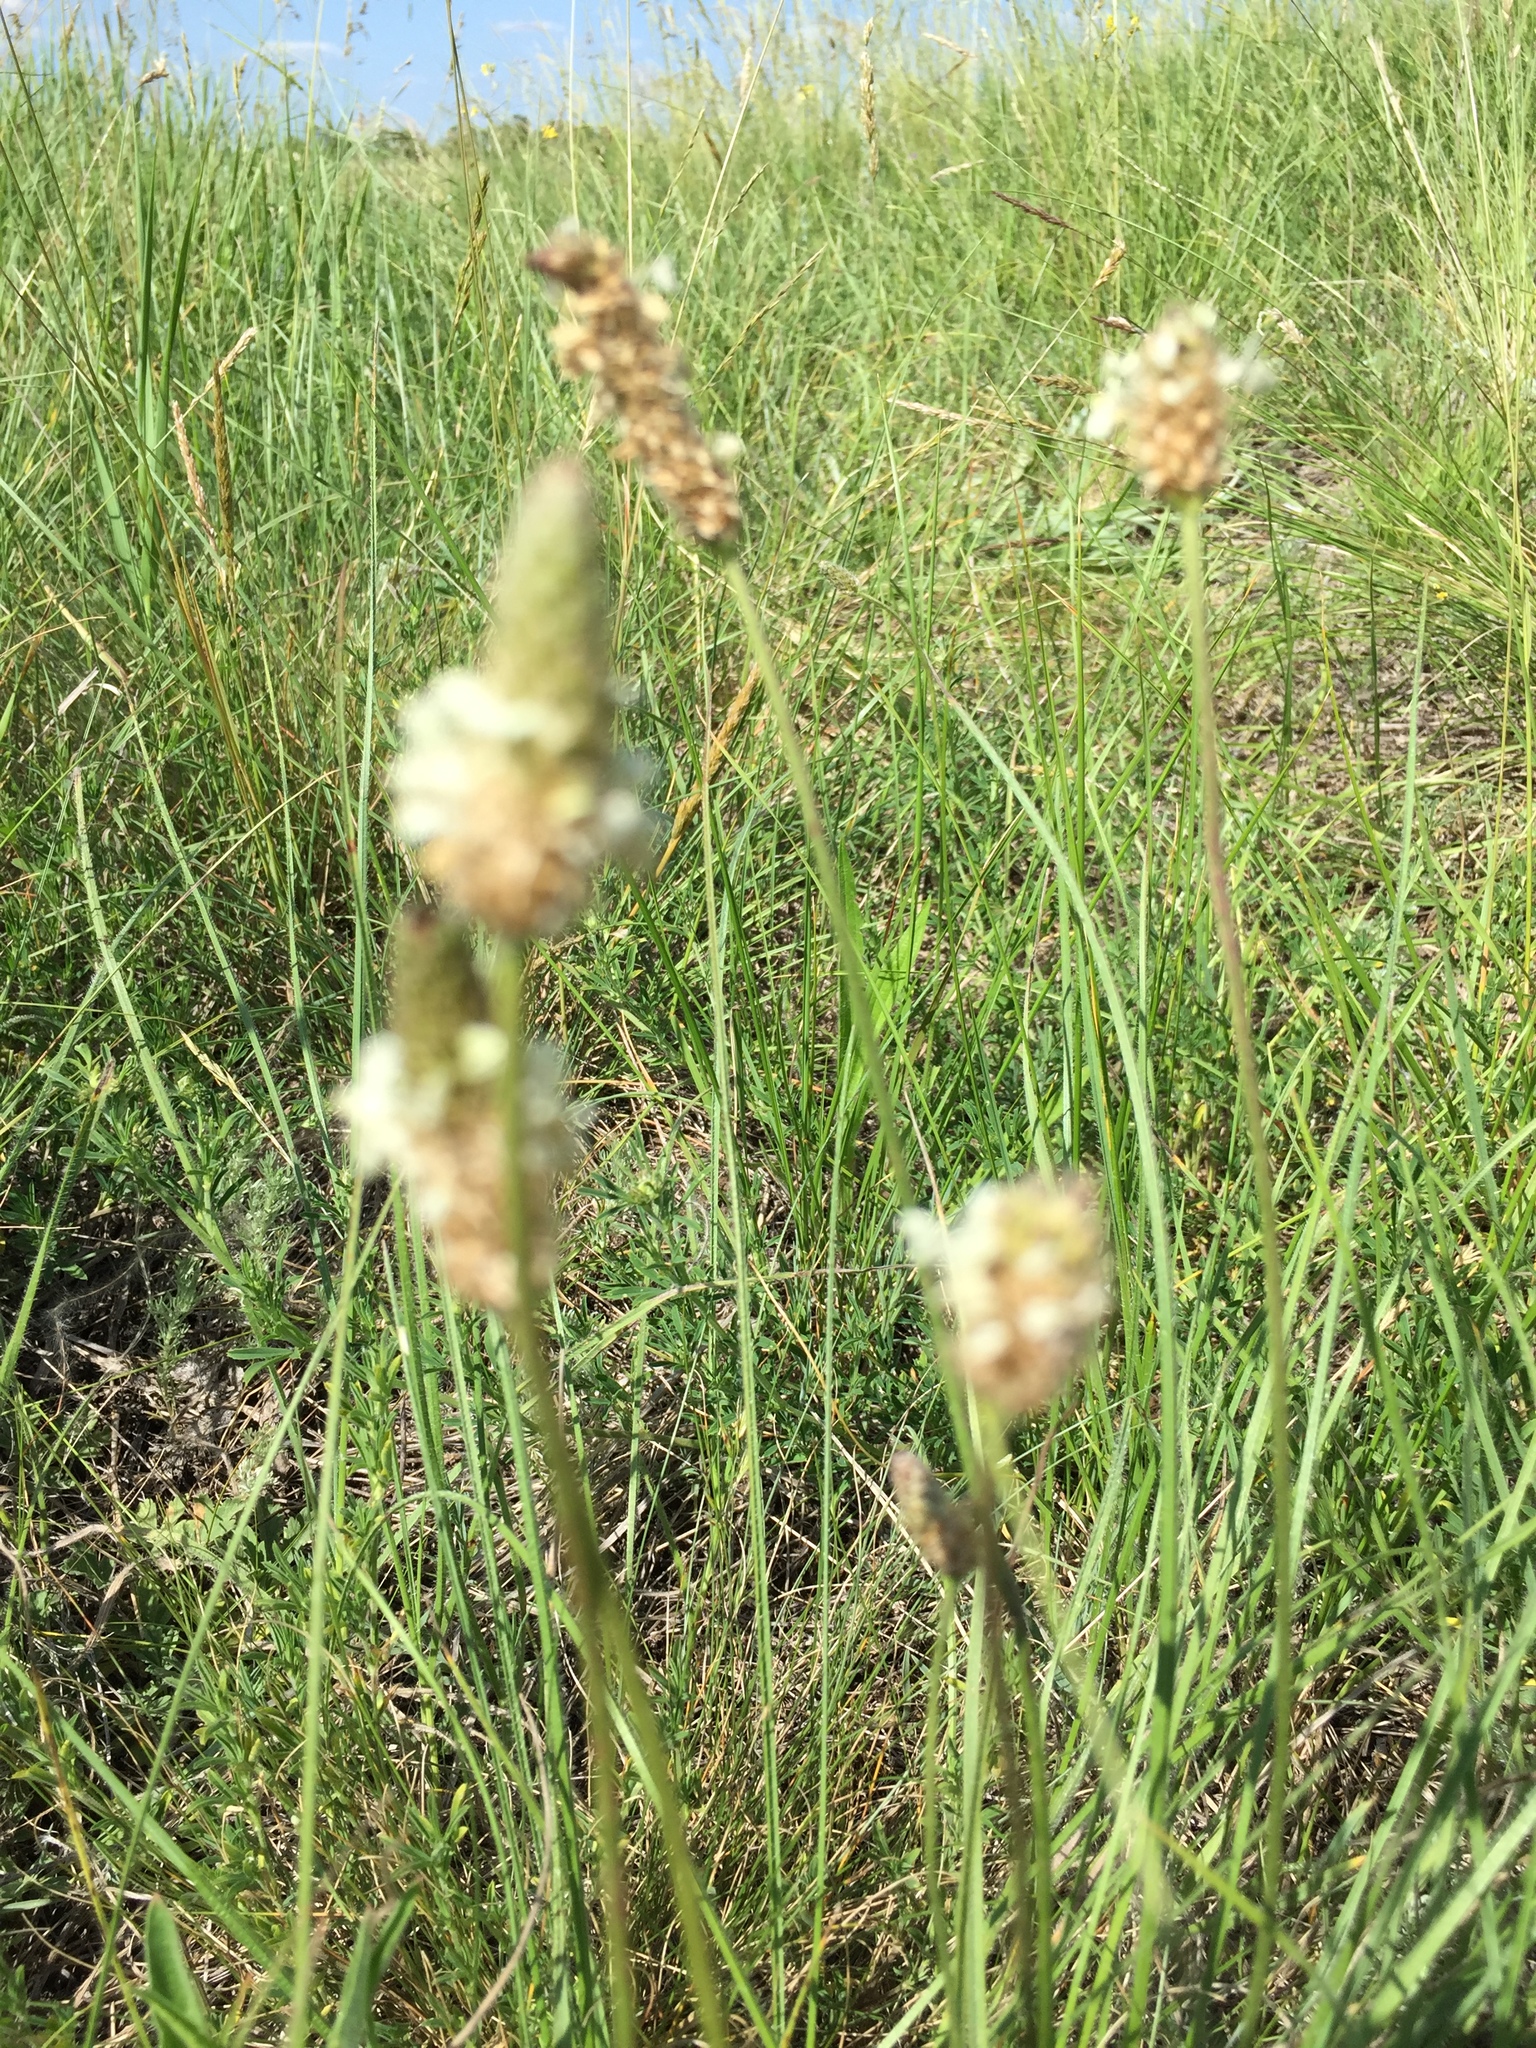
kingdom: Plantae
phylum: Tracheophyta
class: Magnoliopsida
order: Lamiales
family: Plantaginaceae
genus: Plantago
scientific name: Plantago lanceolata
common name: Ribwort plantain
